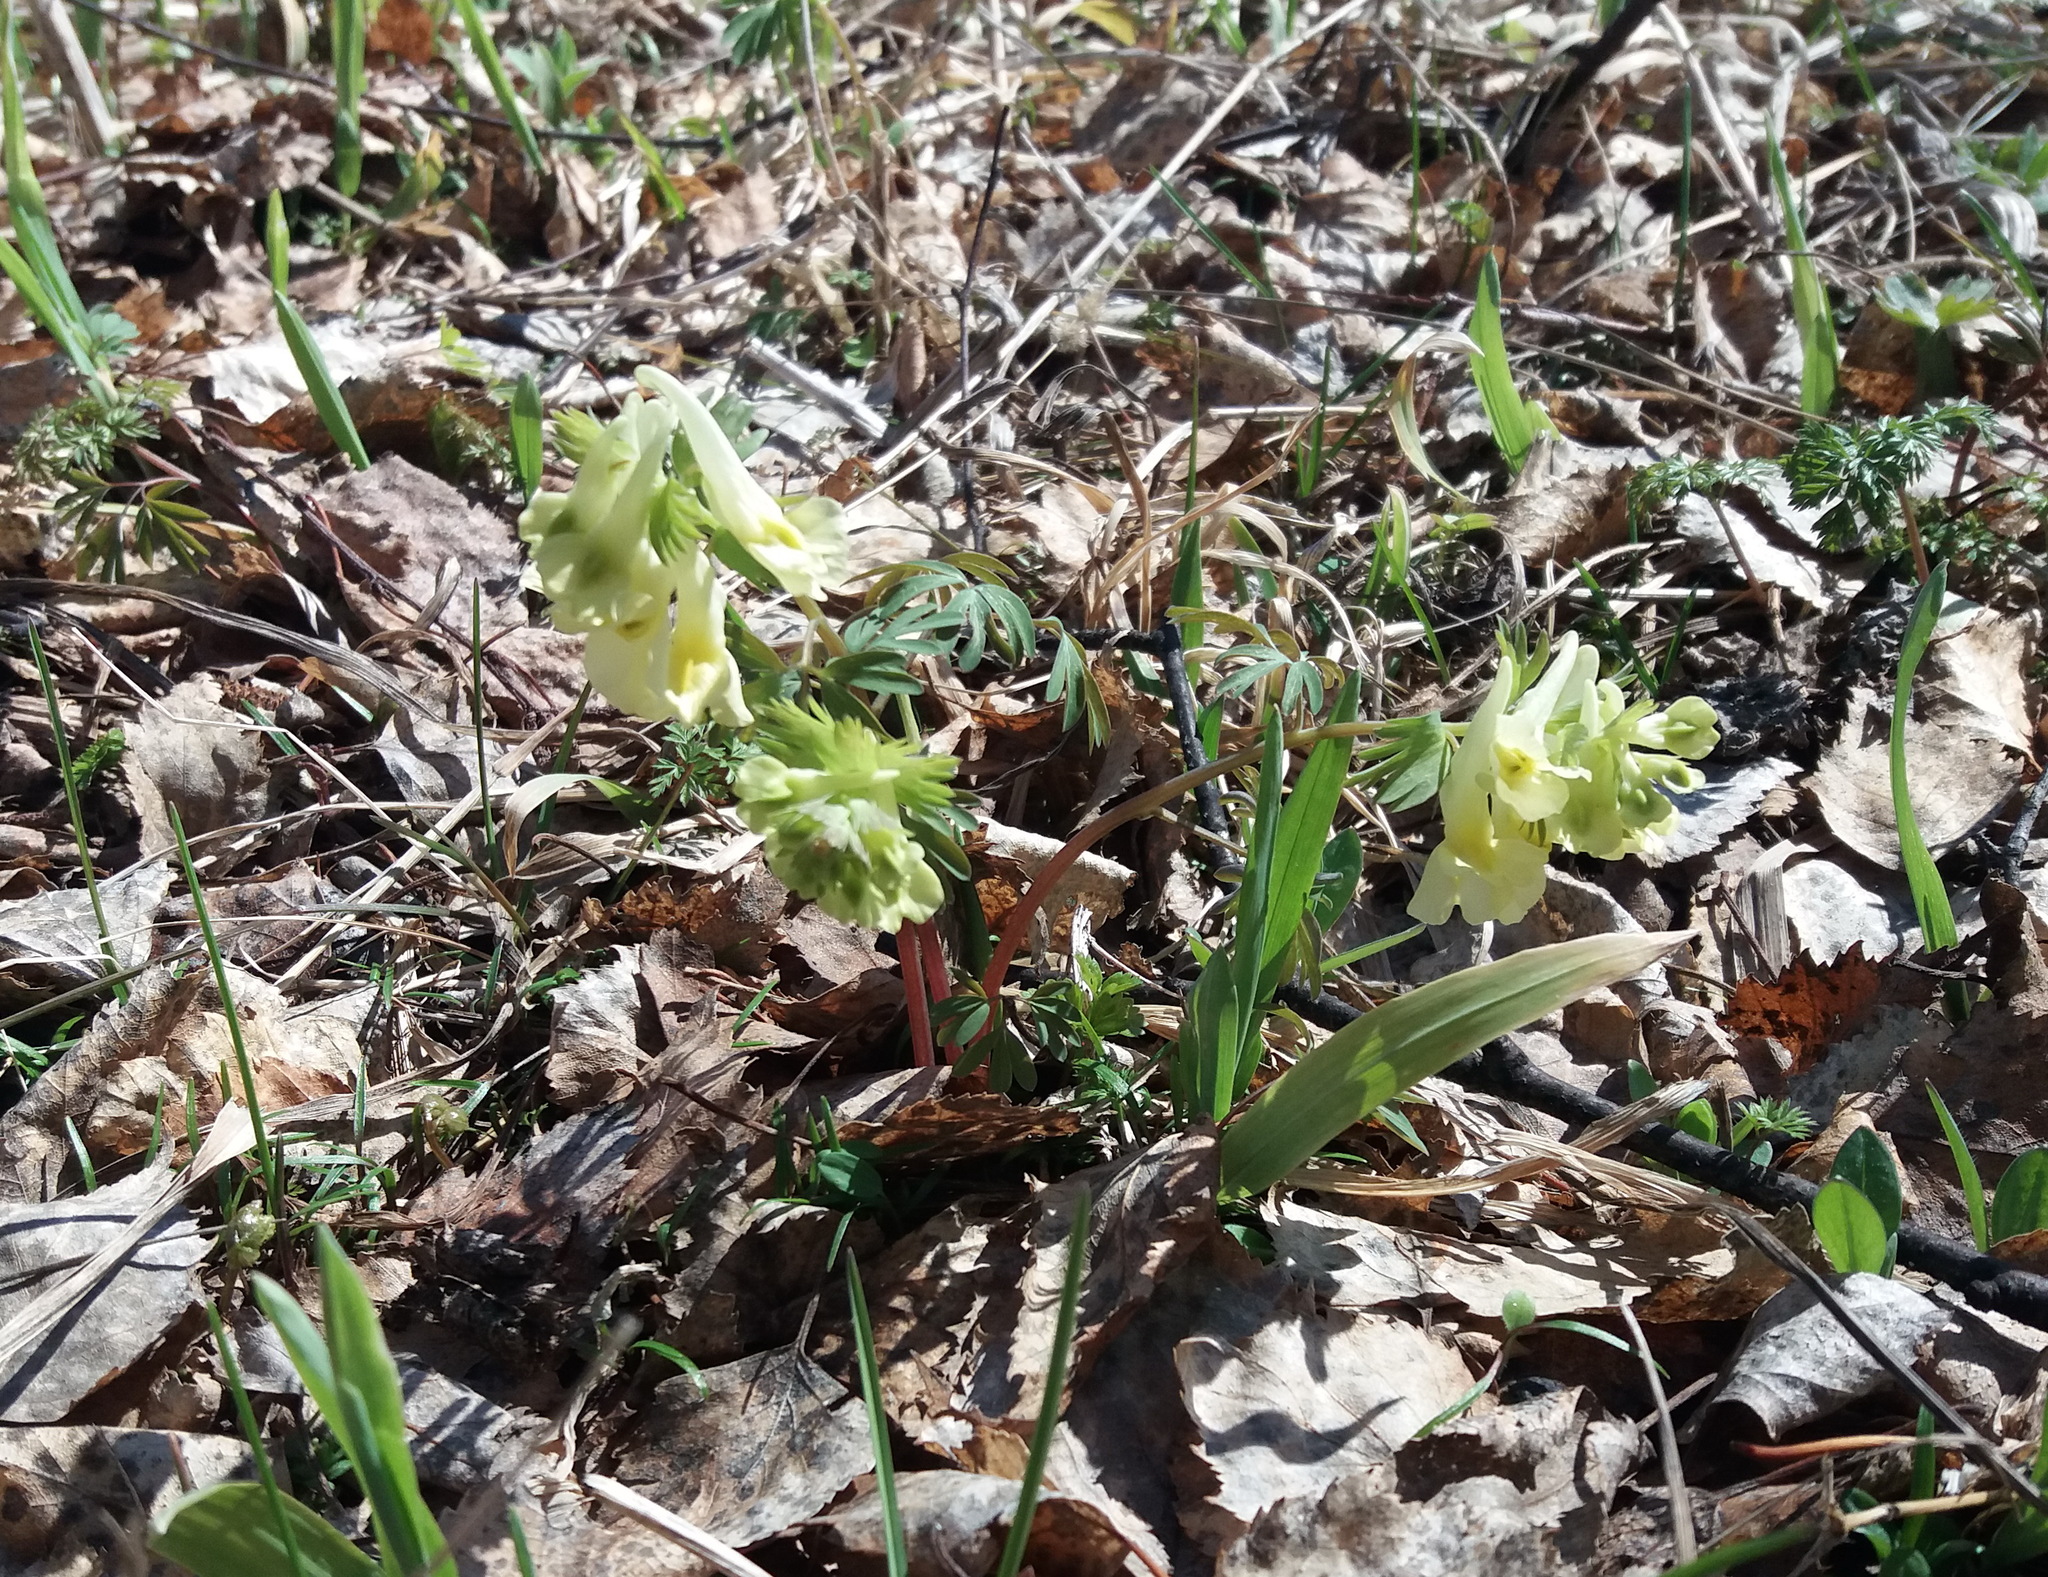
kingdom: Plantae
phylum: Tracheophyta
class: Magnoliopsida
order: Ranunculales
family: Papaveraceae
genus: Corydalis
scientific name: Corydalis bracteata
